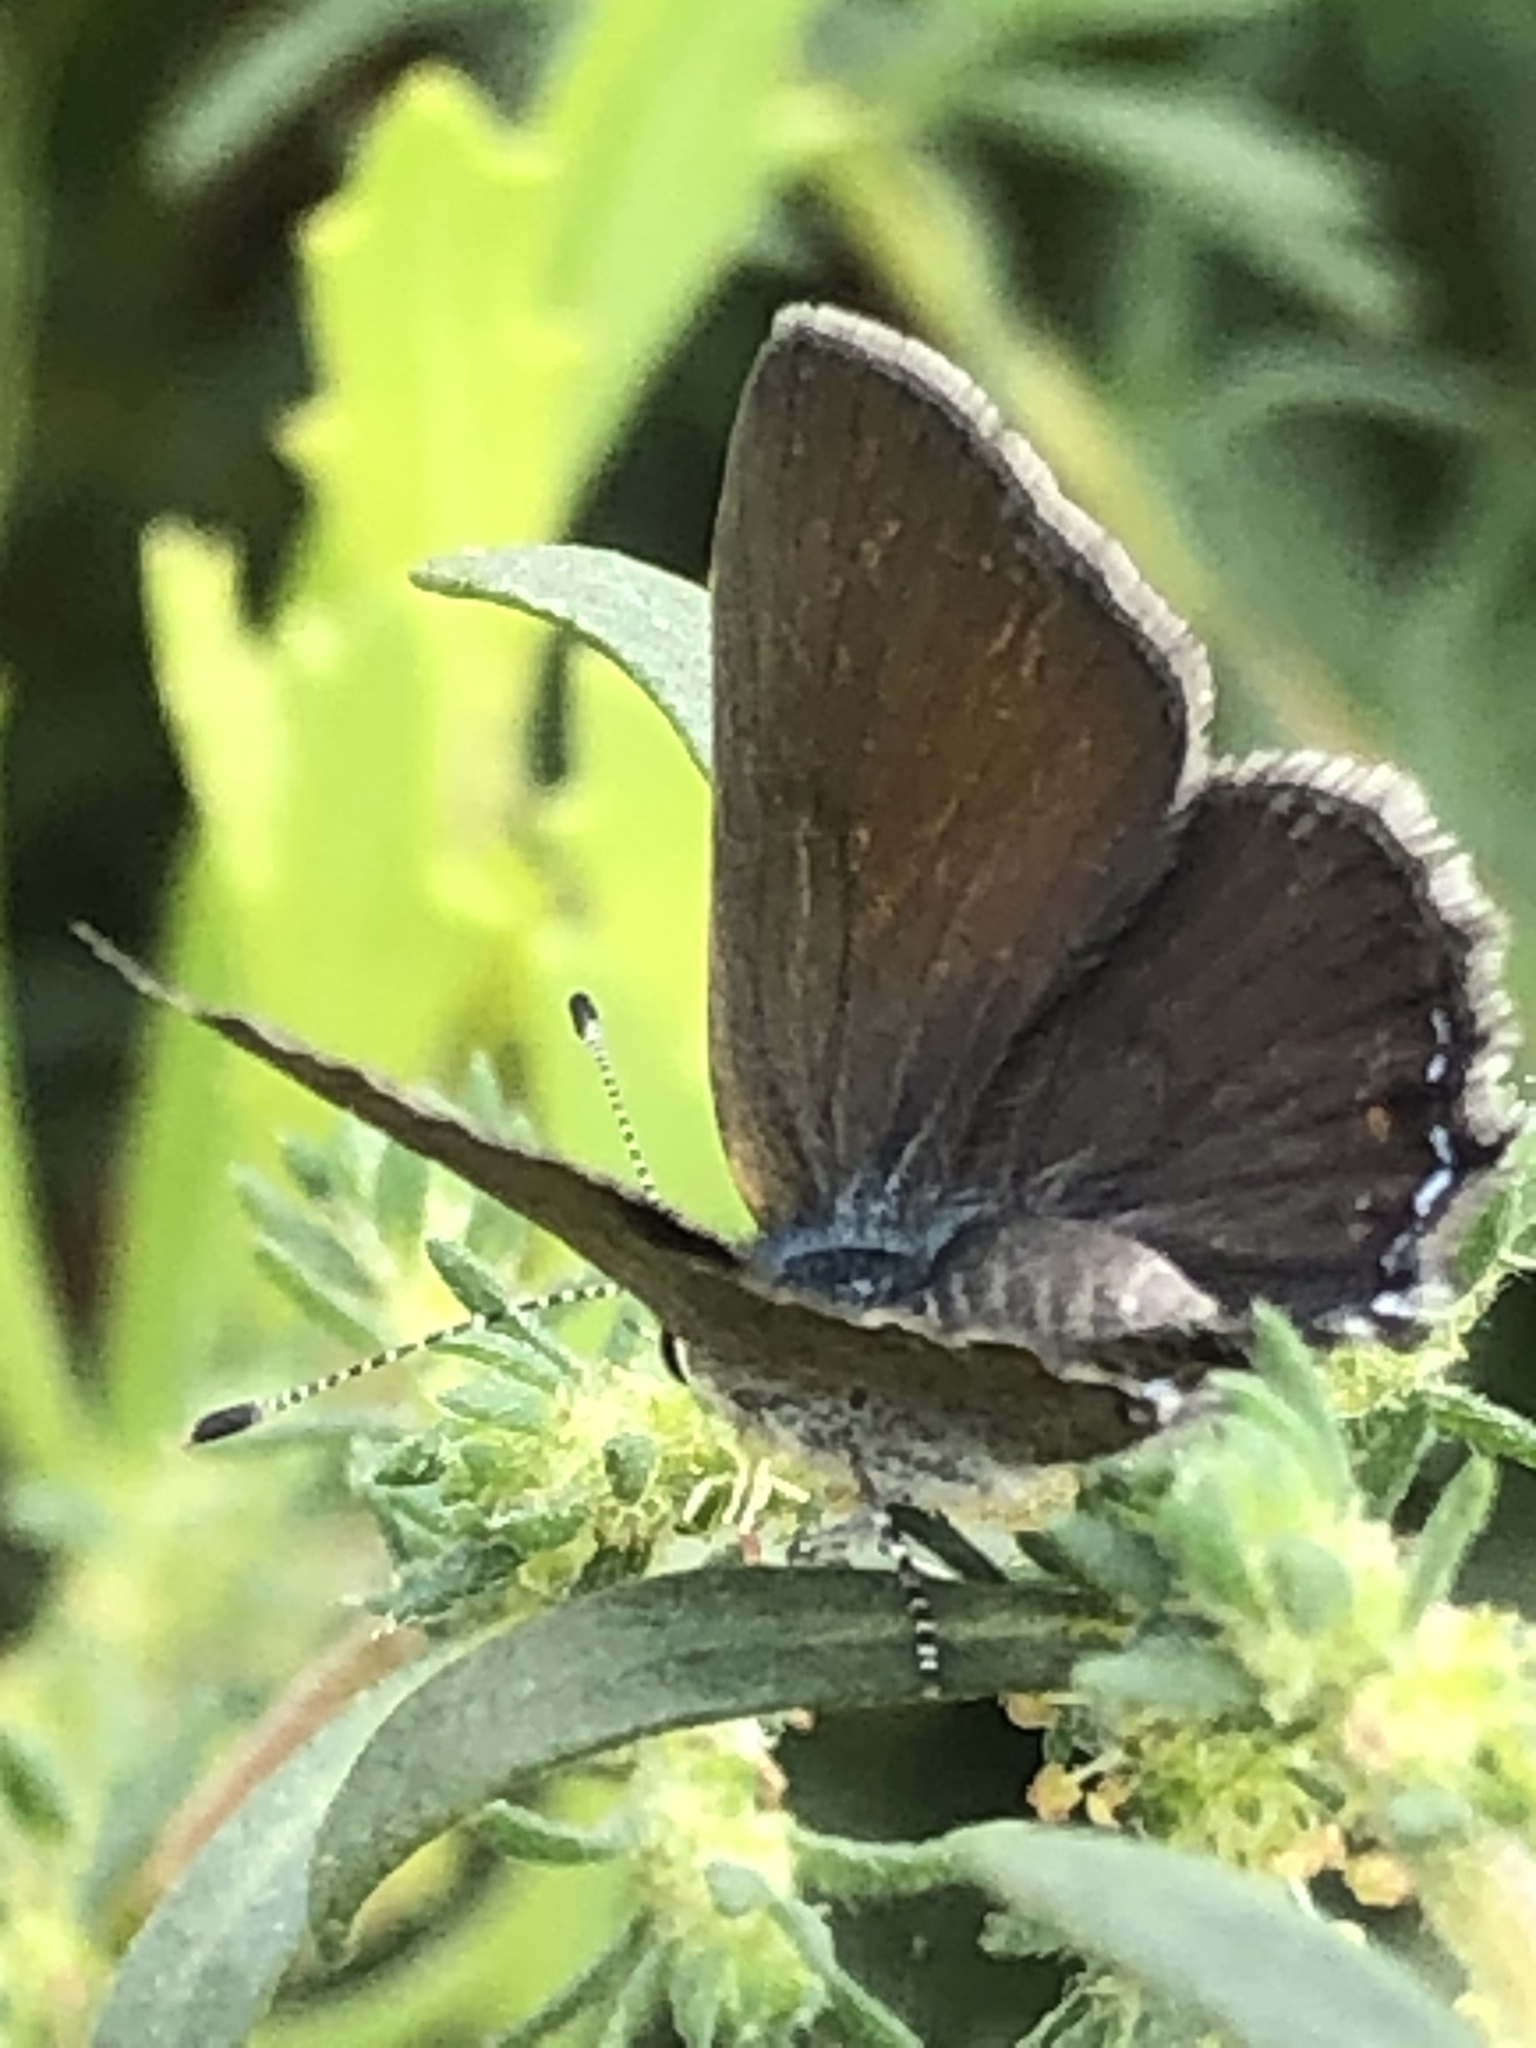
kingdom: Animalia
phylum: Arthropoda
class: Insecta
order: Lepidoptera
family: Lycaenidae
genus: Strymon
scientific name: Strymon eurytulus
